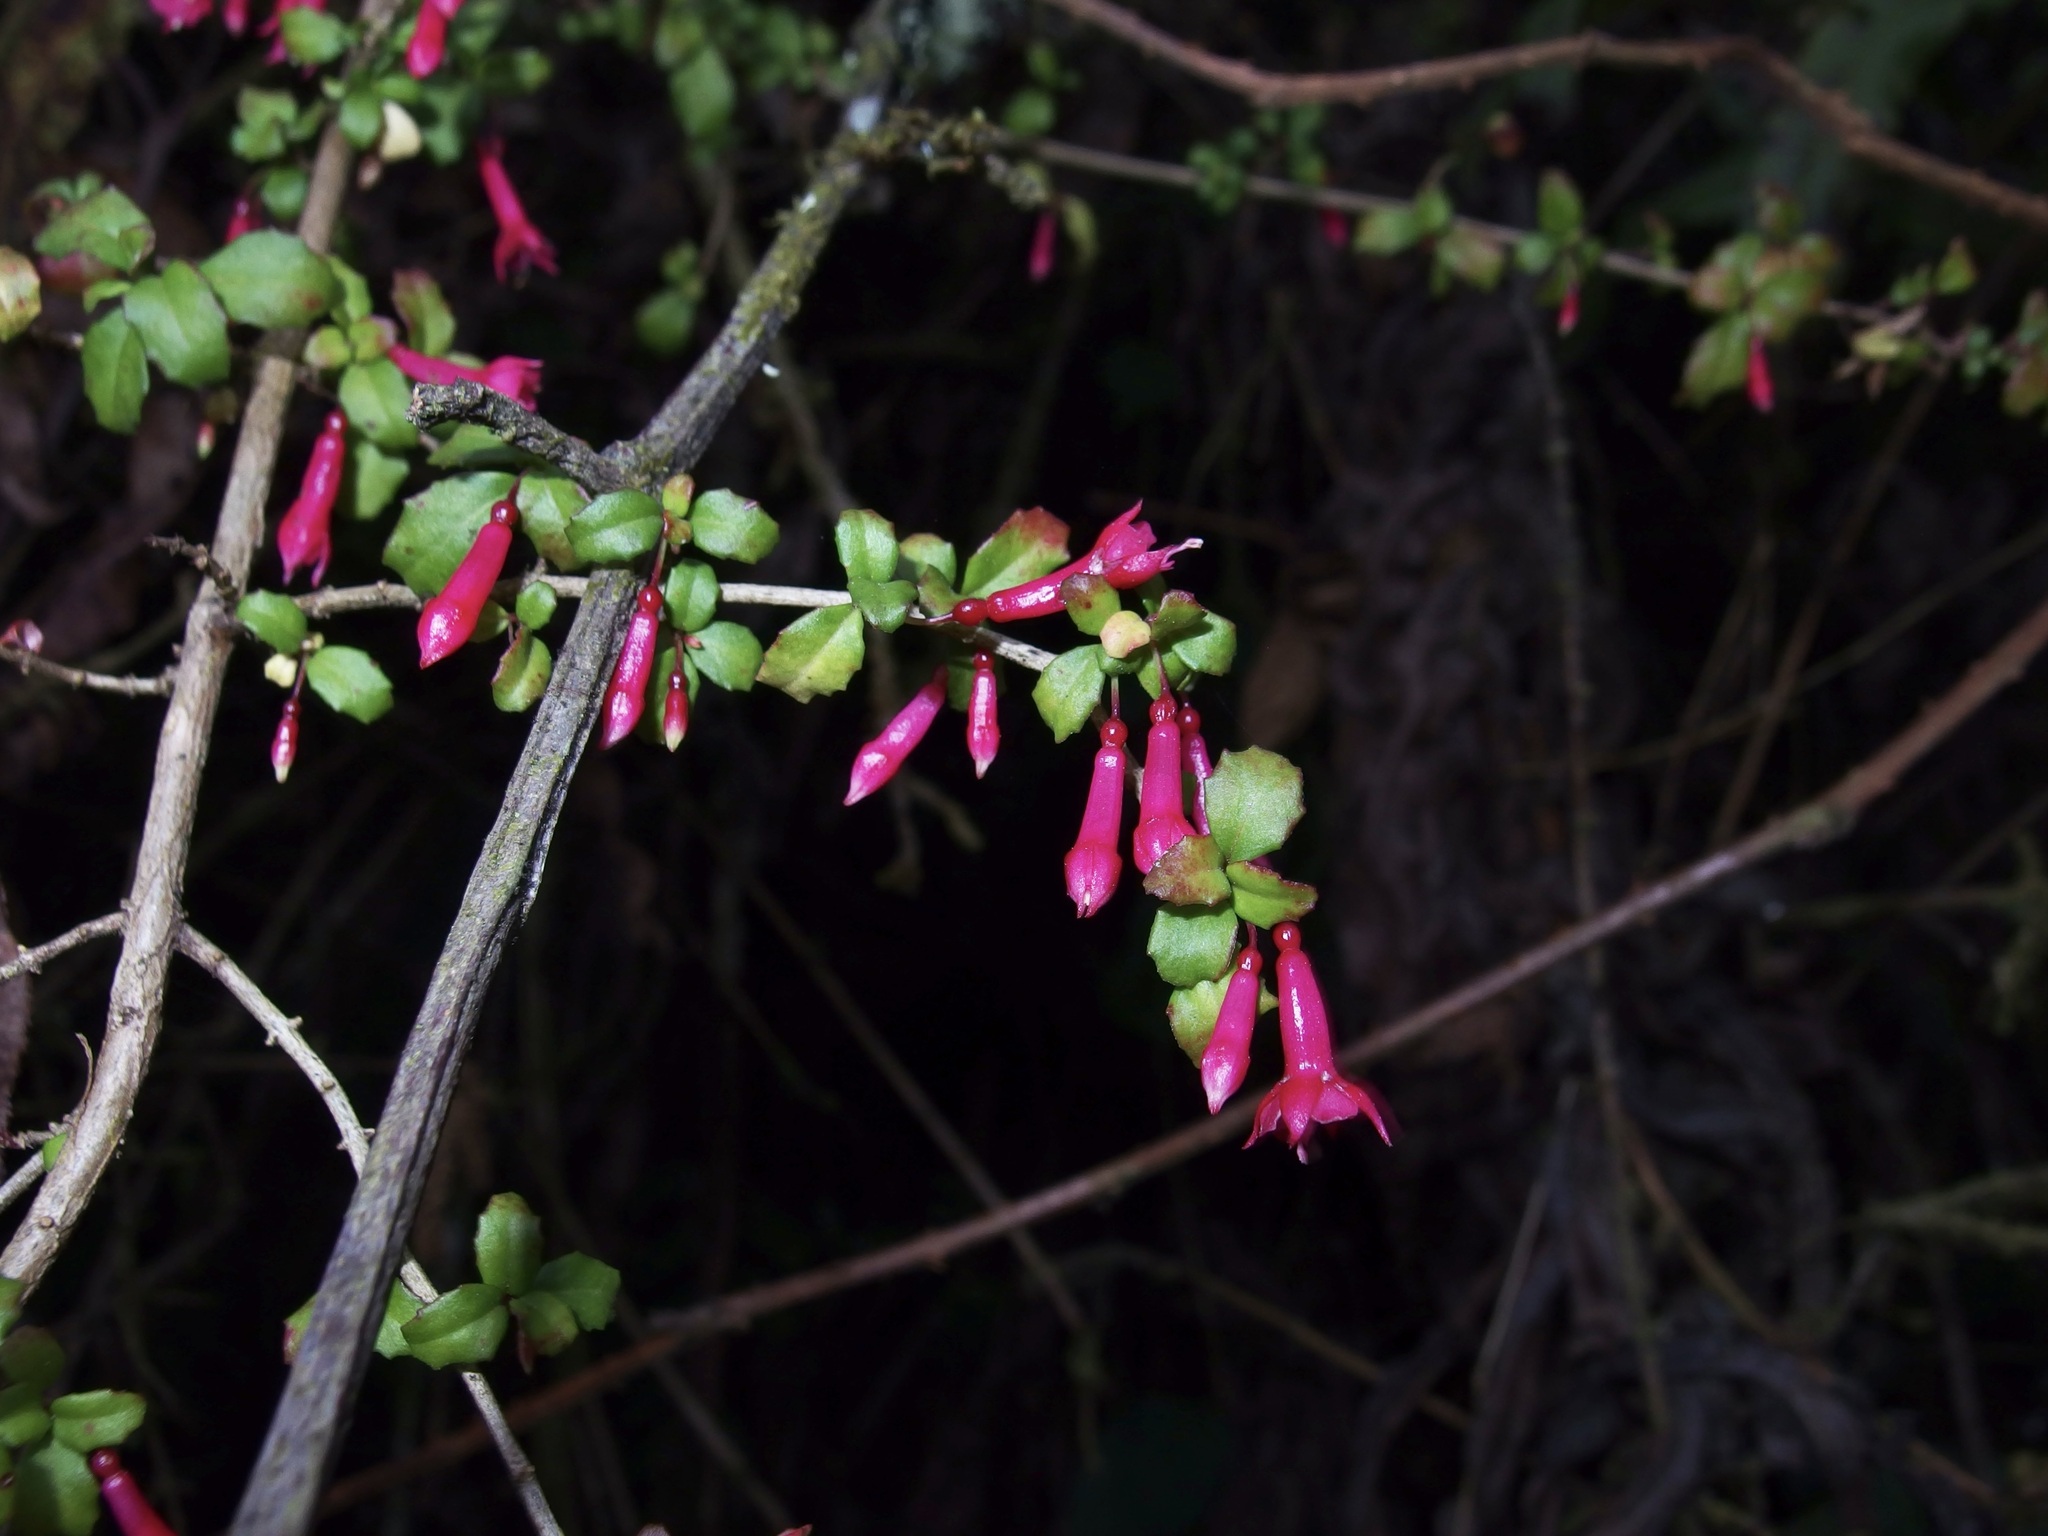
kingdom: Plantae
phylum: Tracheophyta
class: Magnoliopsida
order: Myrtales
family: Onagraceae
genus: Fuchsia
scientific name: Fuchsia microphylla
